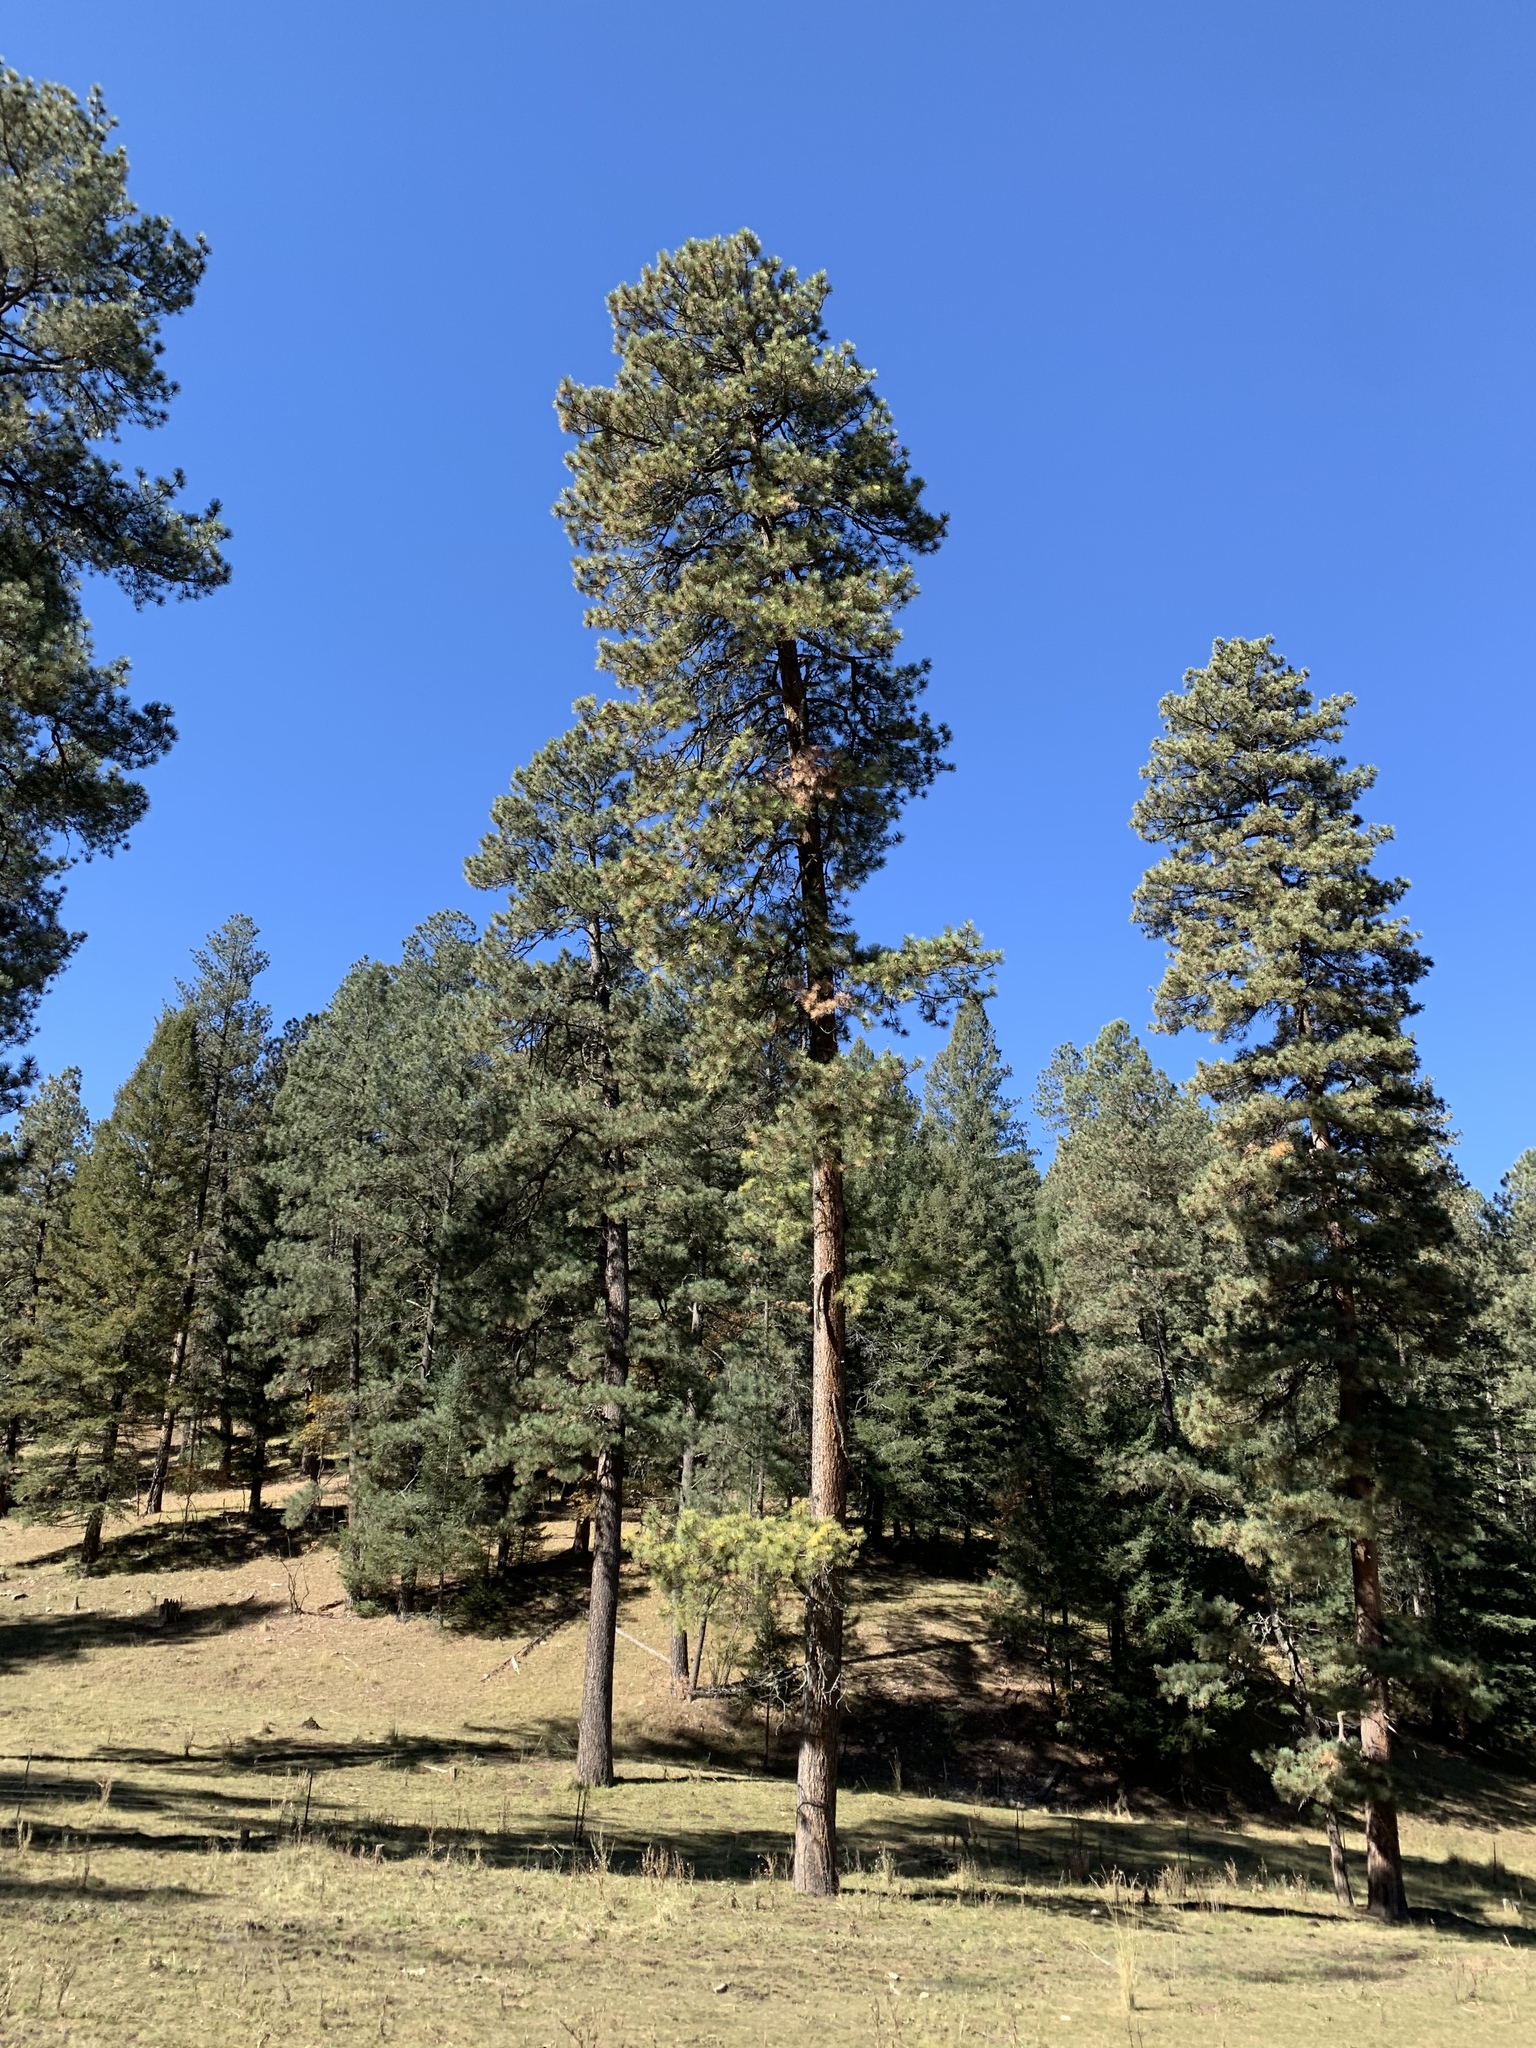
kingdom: Plantae
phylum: Tracheophyta
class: Pinopsida
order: Pinales
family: Pinaceae
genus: Pinus
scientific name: Pinus ponderosa
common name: Western yellow-pine
